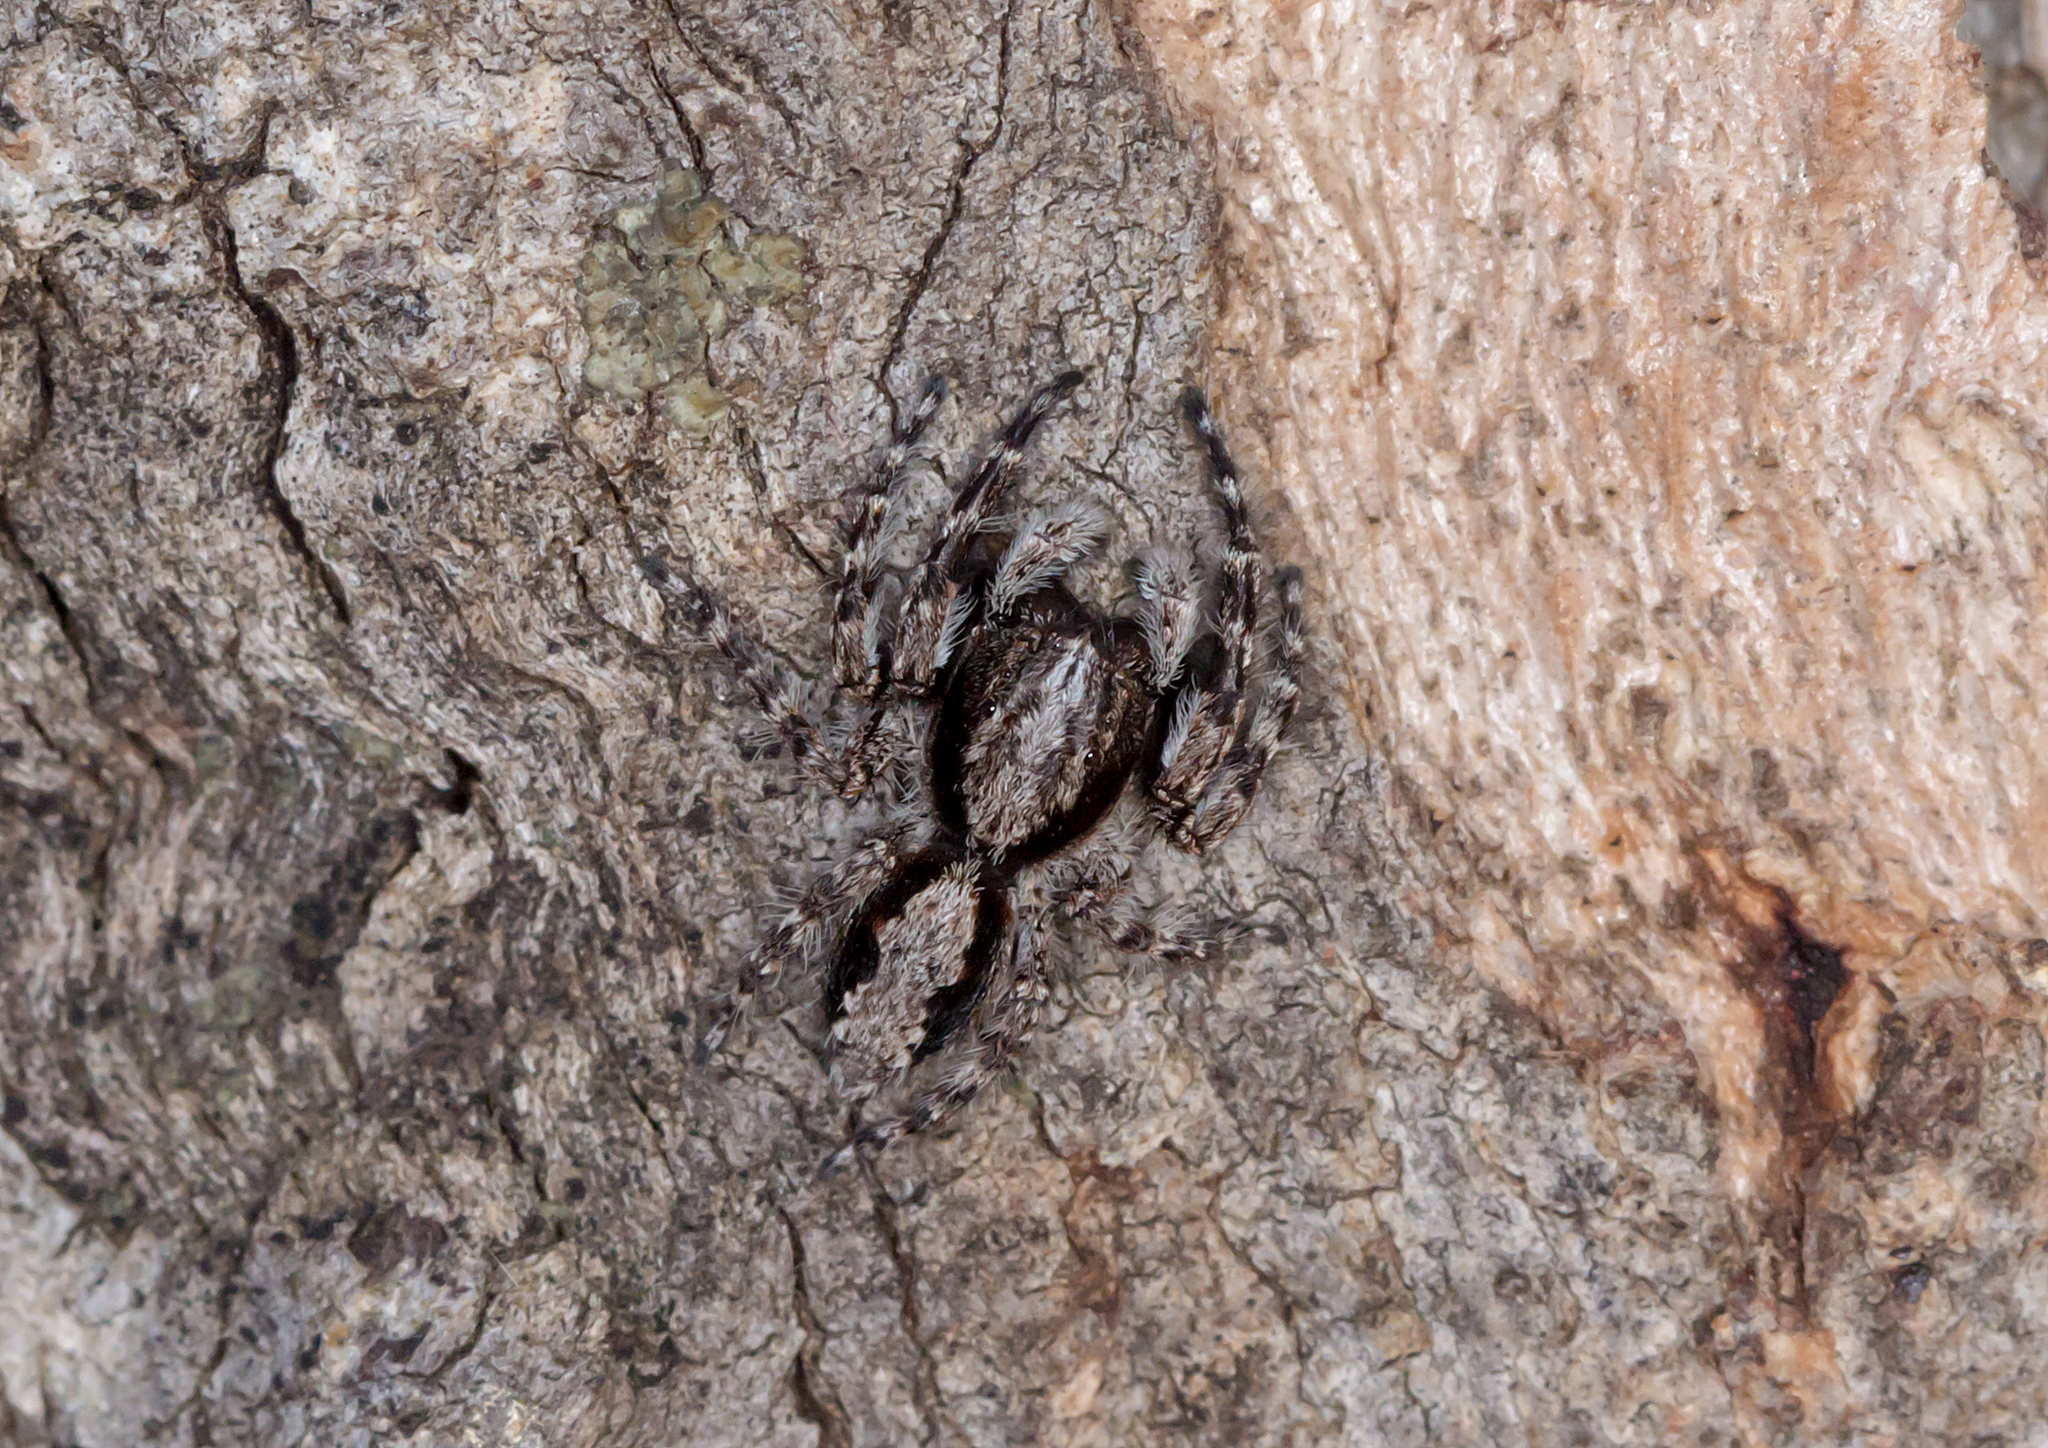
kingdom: Animalia
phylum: Arthropoda
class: Arachnida
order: Araneae
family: Salticidae
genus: Clynotis
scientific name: Clynotis severus
